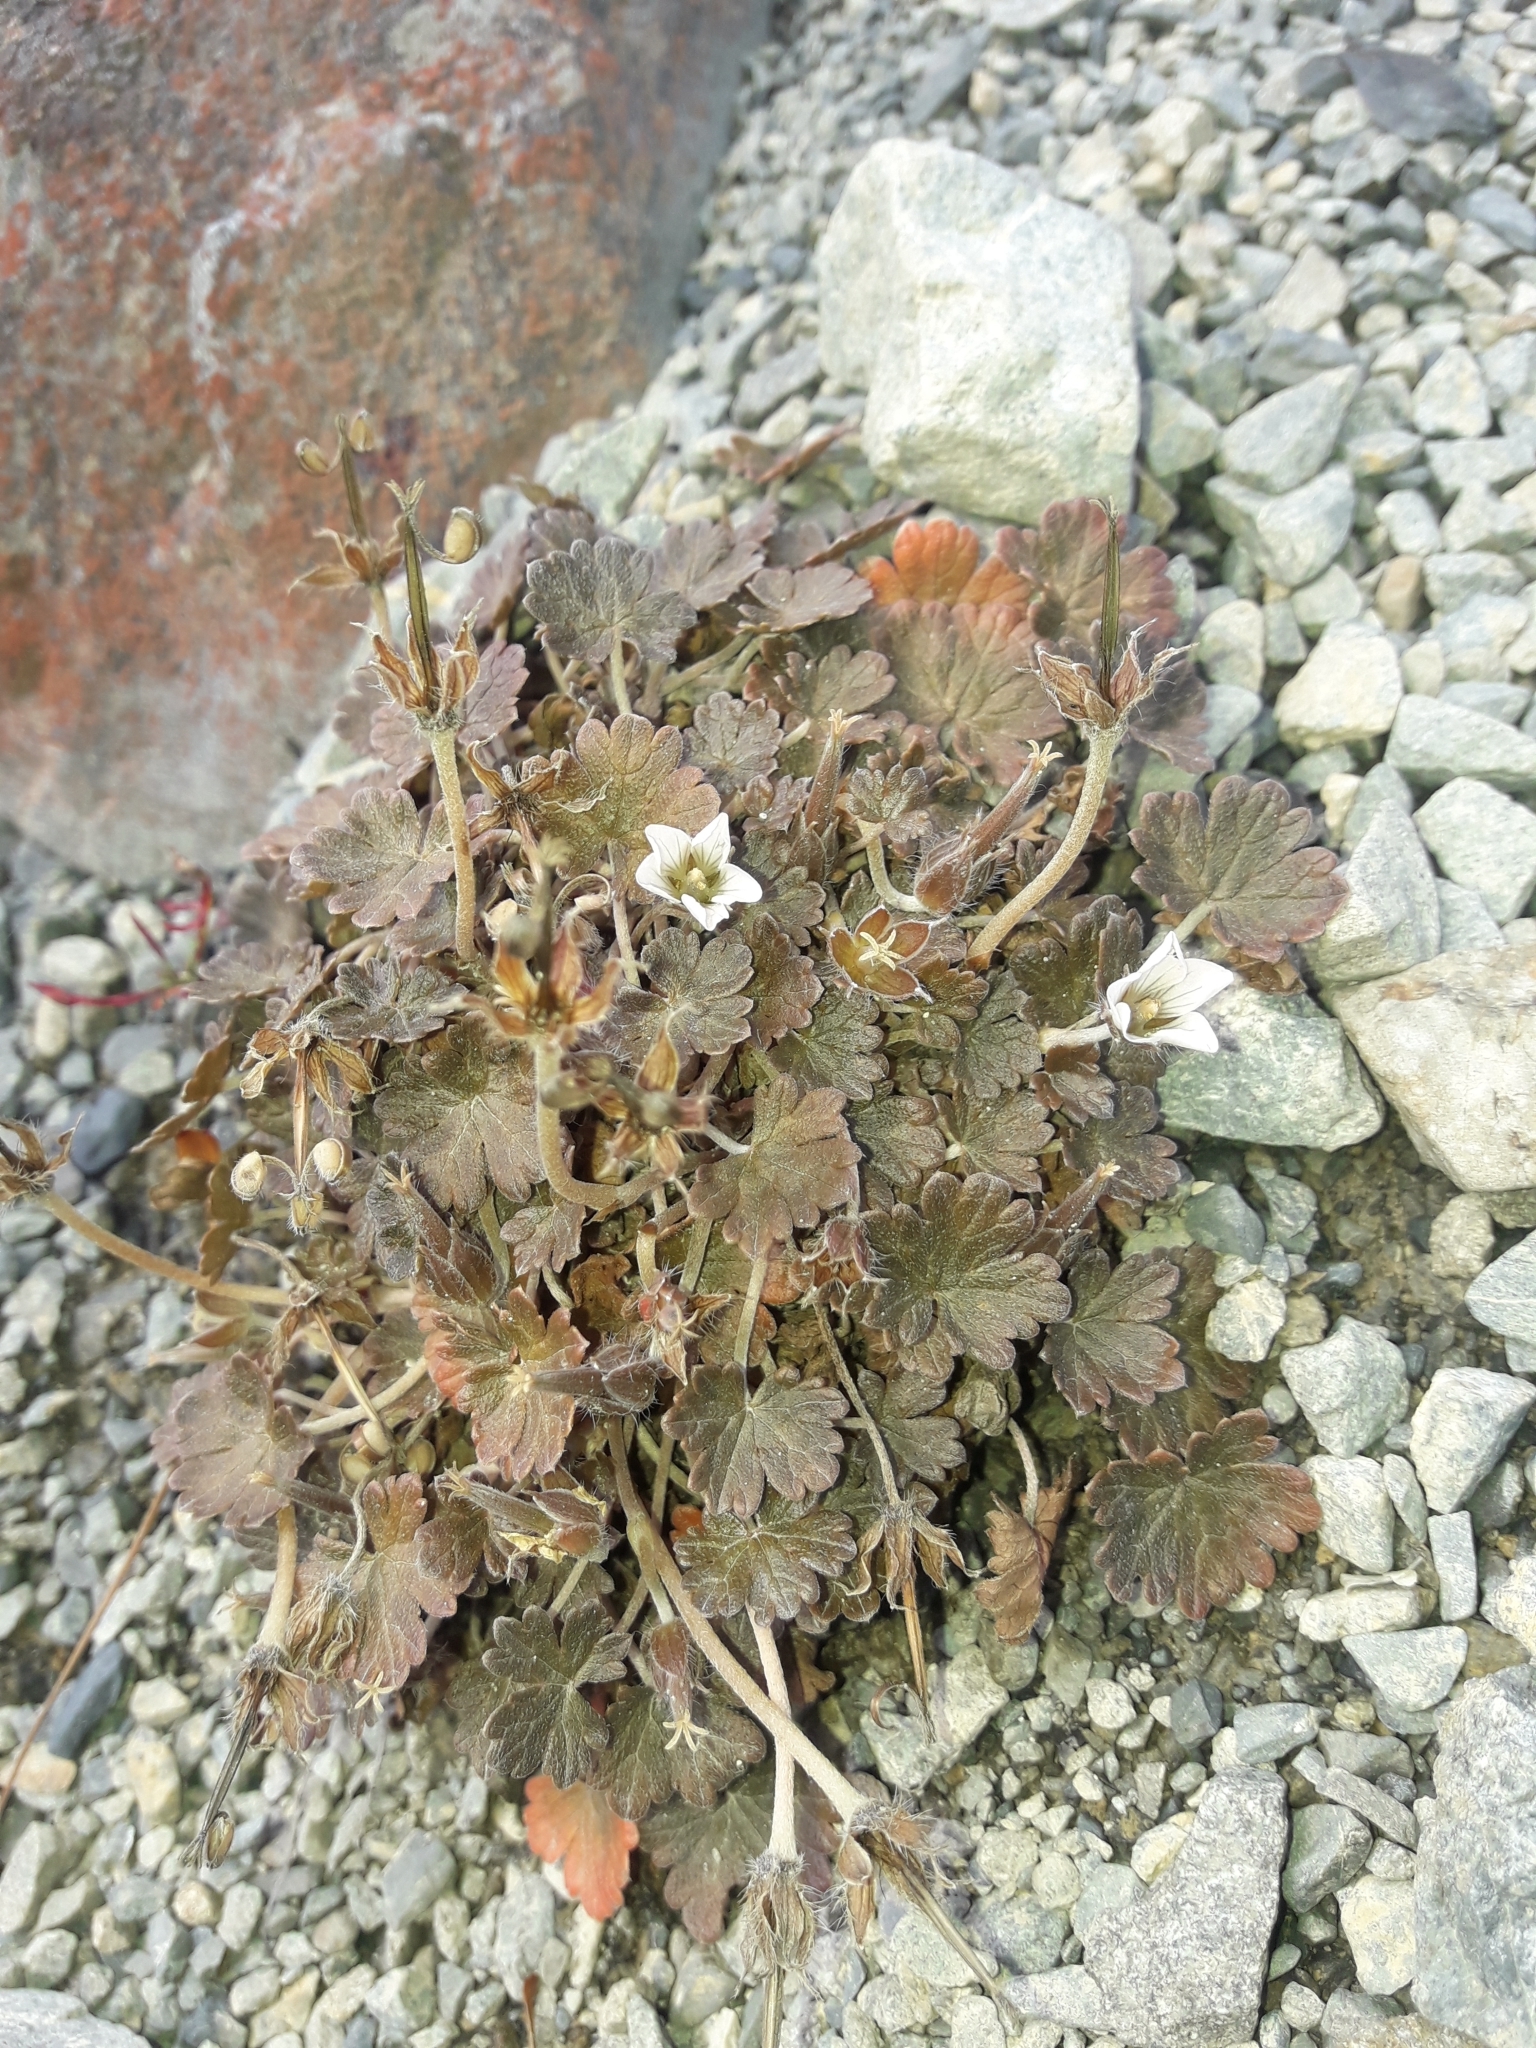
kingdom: Plantae
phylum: Tracheophyta
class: Magnoliopsida
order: Geraniales
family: Geraniaceae
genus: Geranium
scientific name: Geranium brevicaule
